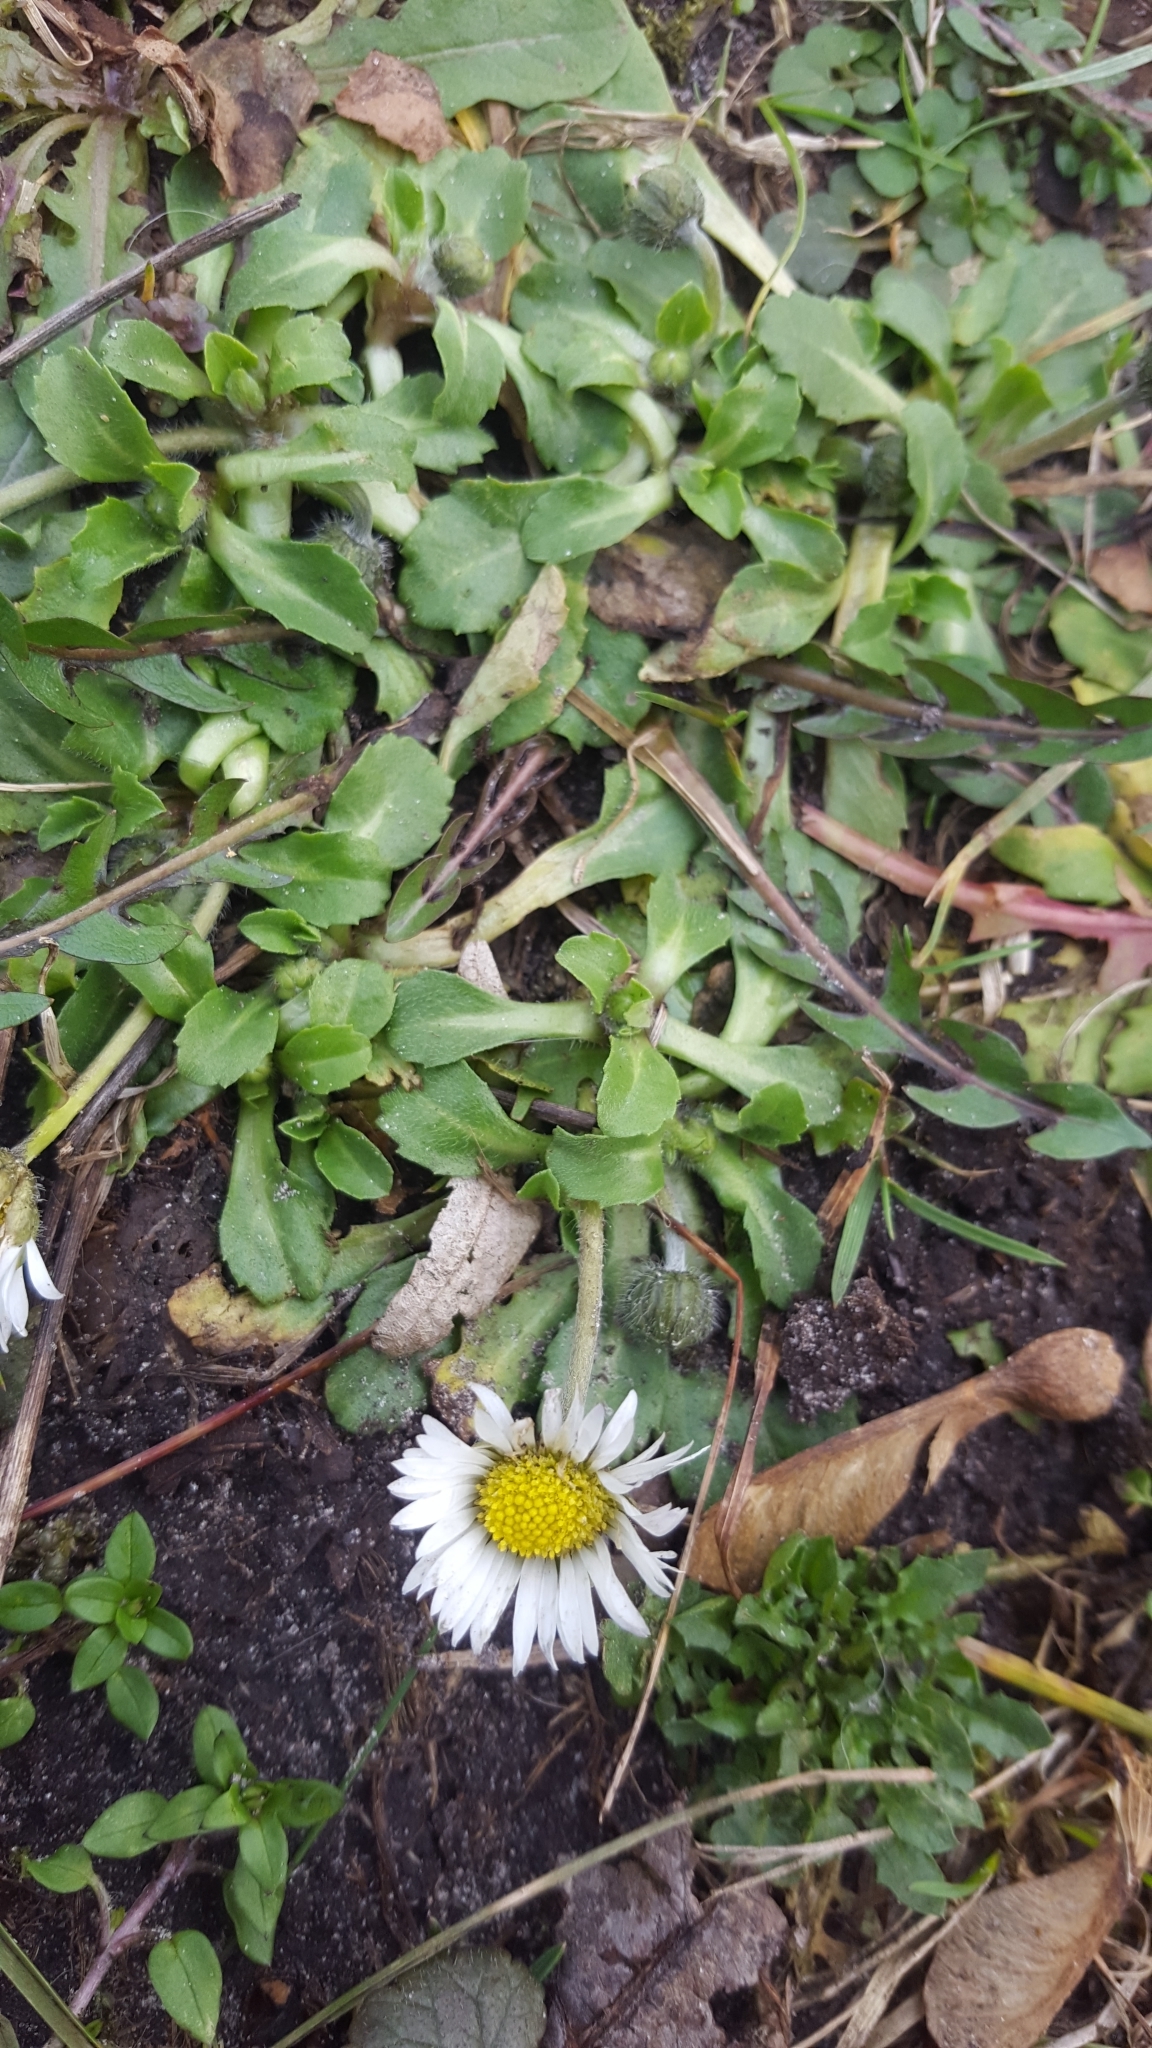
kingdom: Plantae
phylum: Tracheophyta
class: Magnoliopsida
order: Asterales
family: Asteraceae
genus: Bellis
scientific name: Bellis perennis
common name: Lawndaisy
